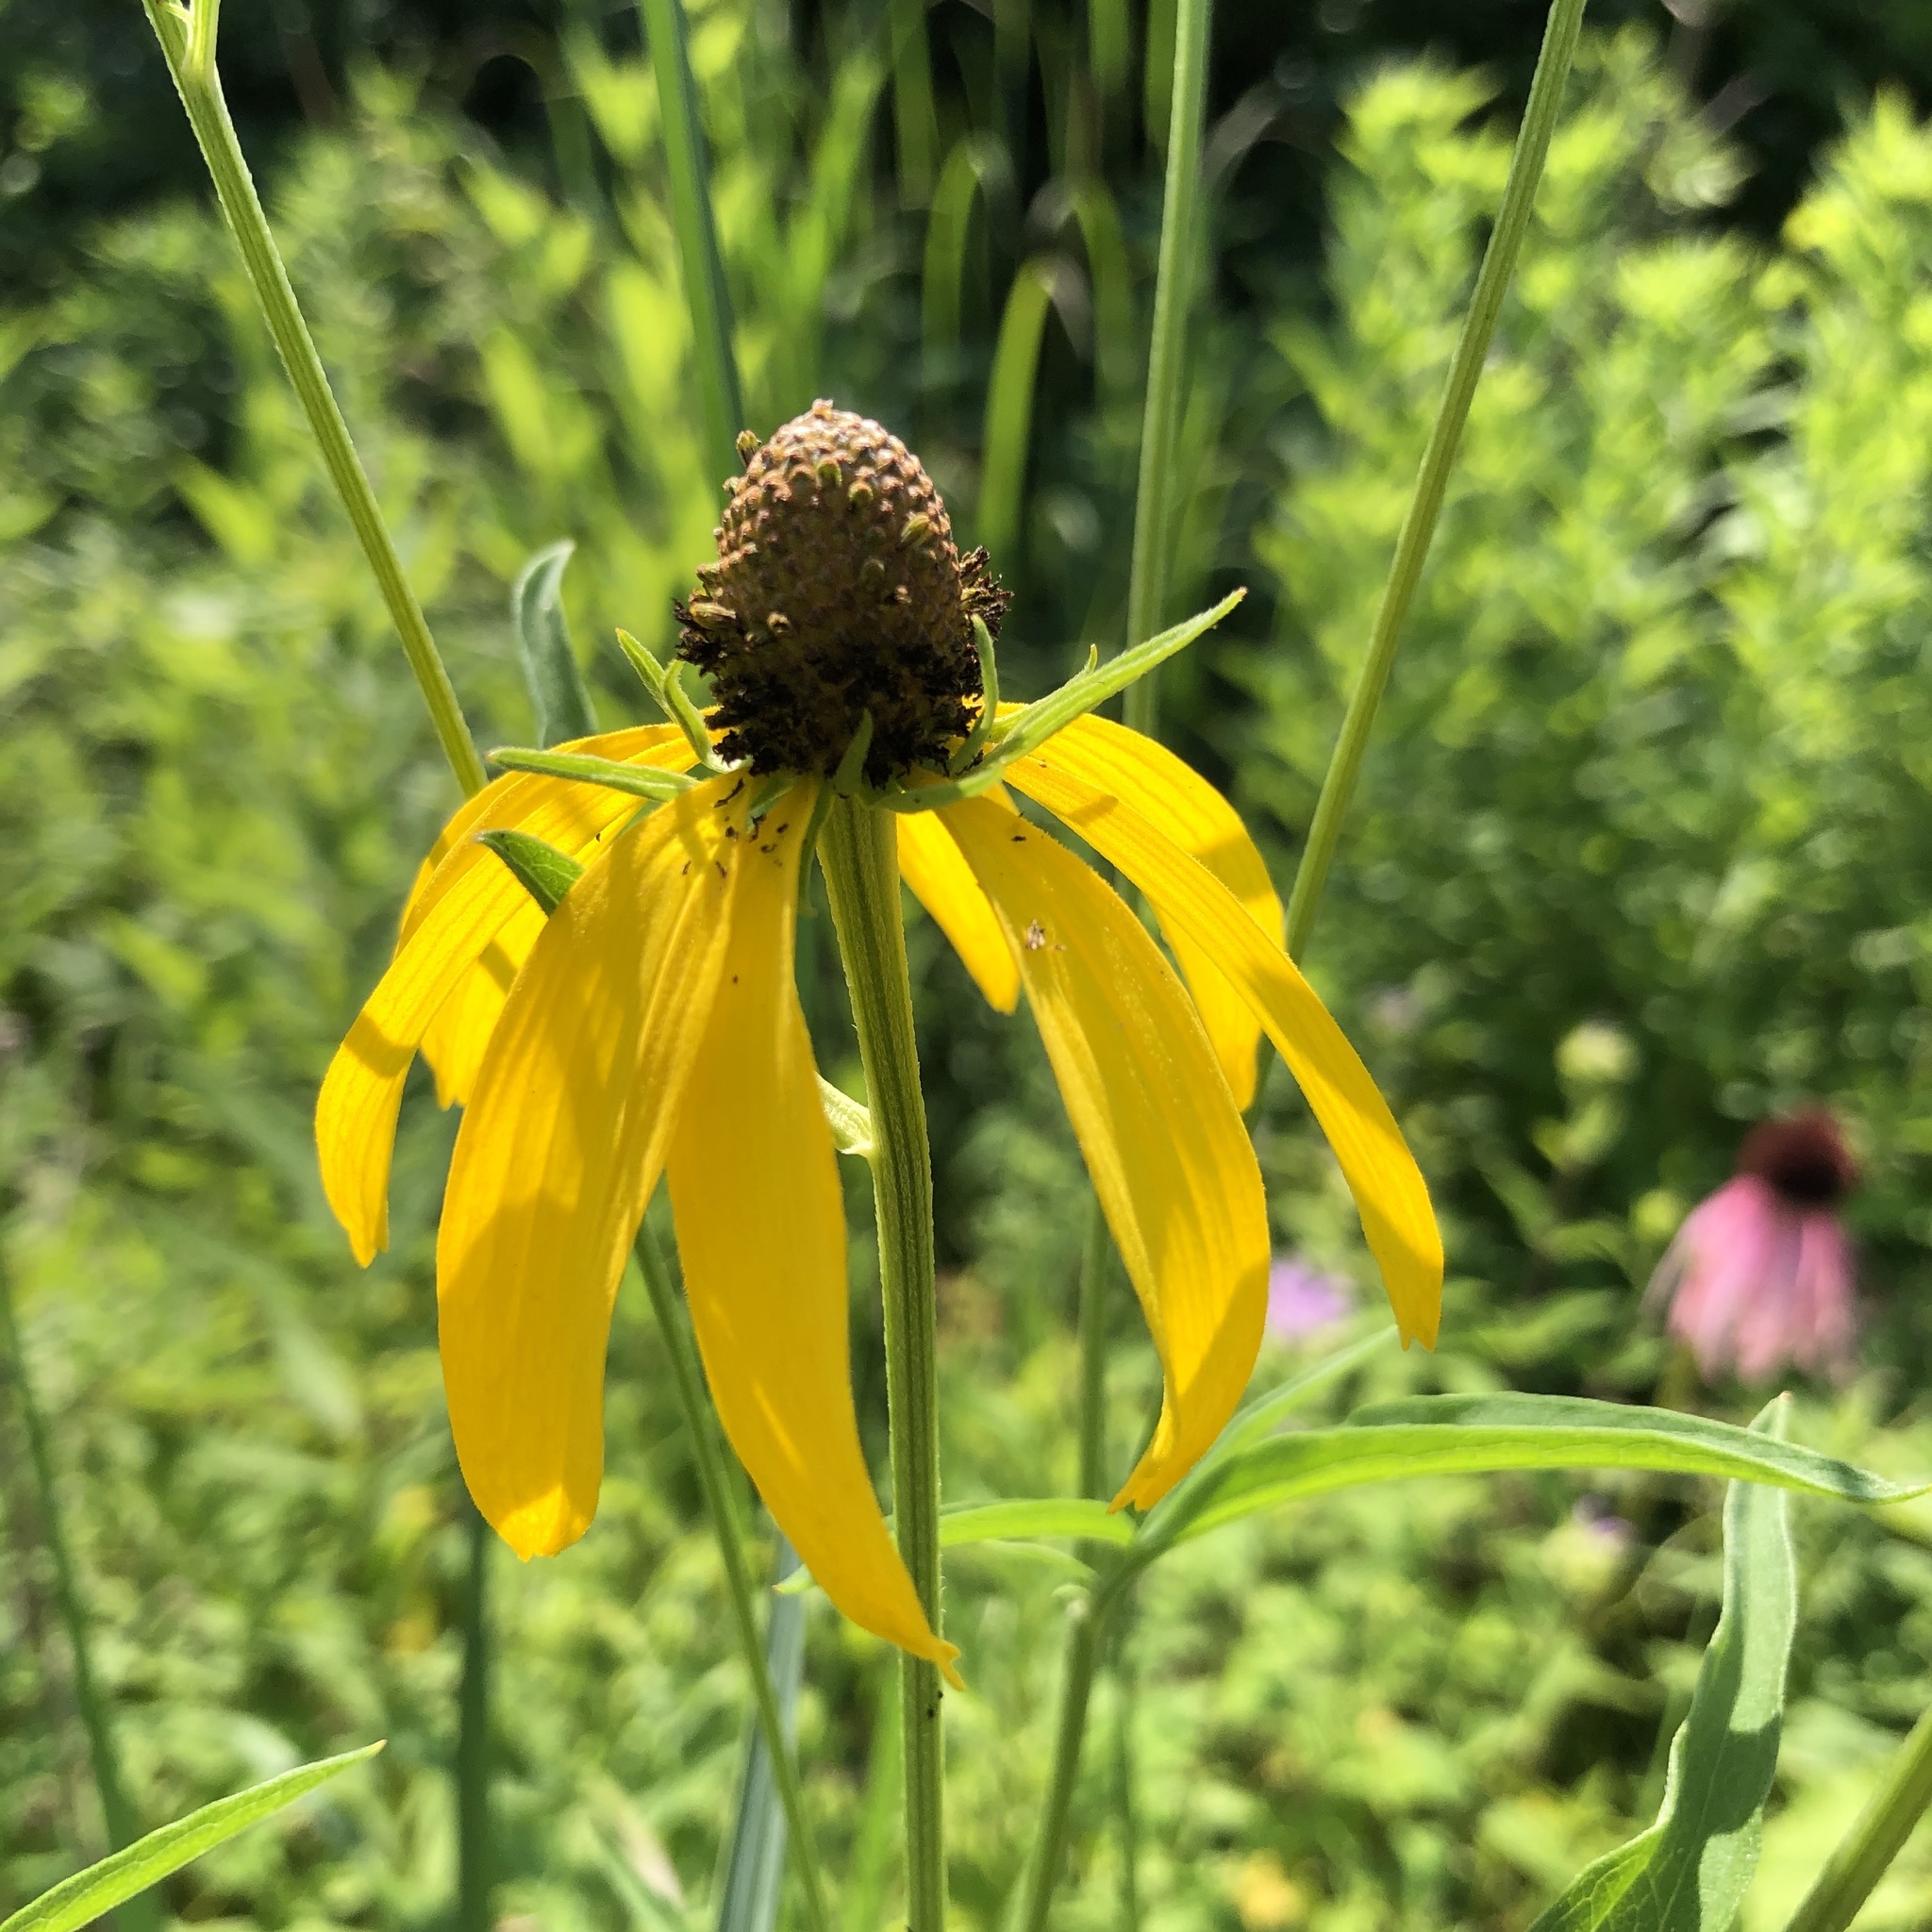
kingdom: Plantae
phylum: Tracheophyta
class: Magnoliopsida
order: Asterales
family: Asteraceae
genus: Ratibida
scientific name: Ratibida pinnata
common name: Drooping prairie-coneflower
